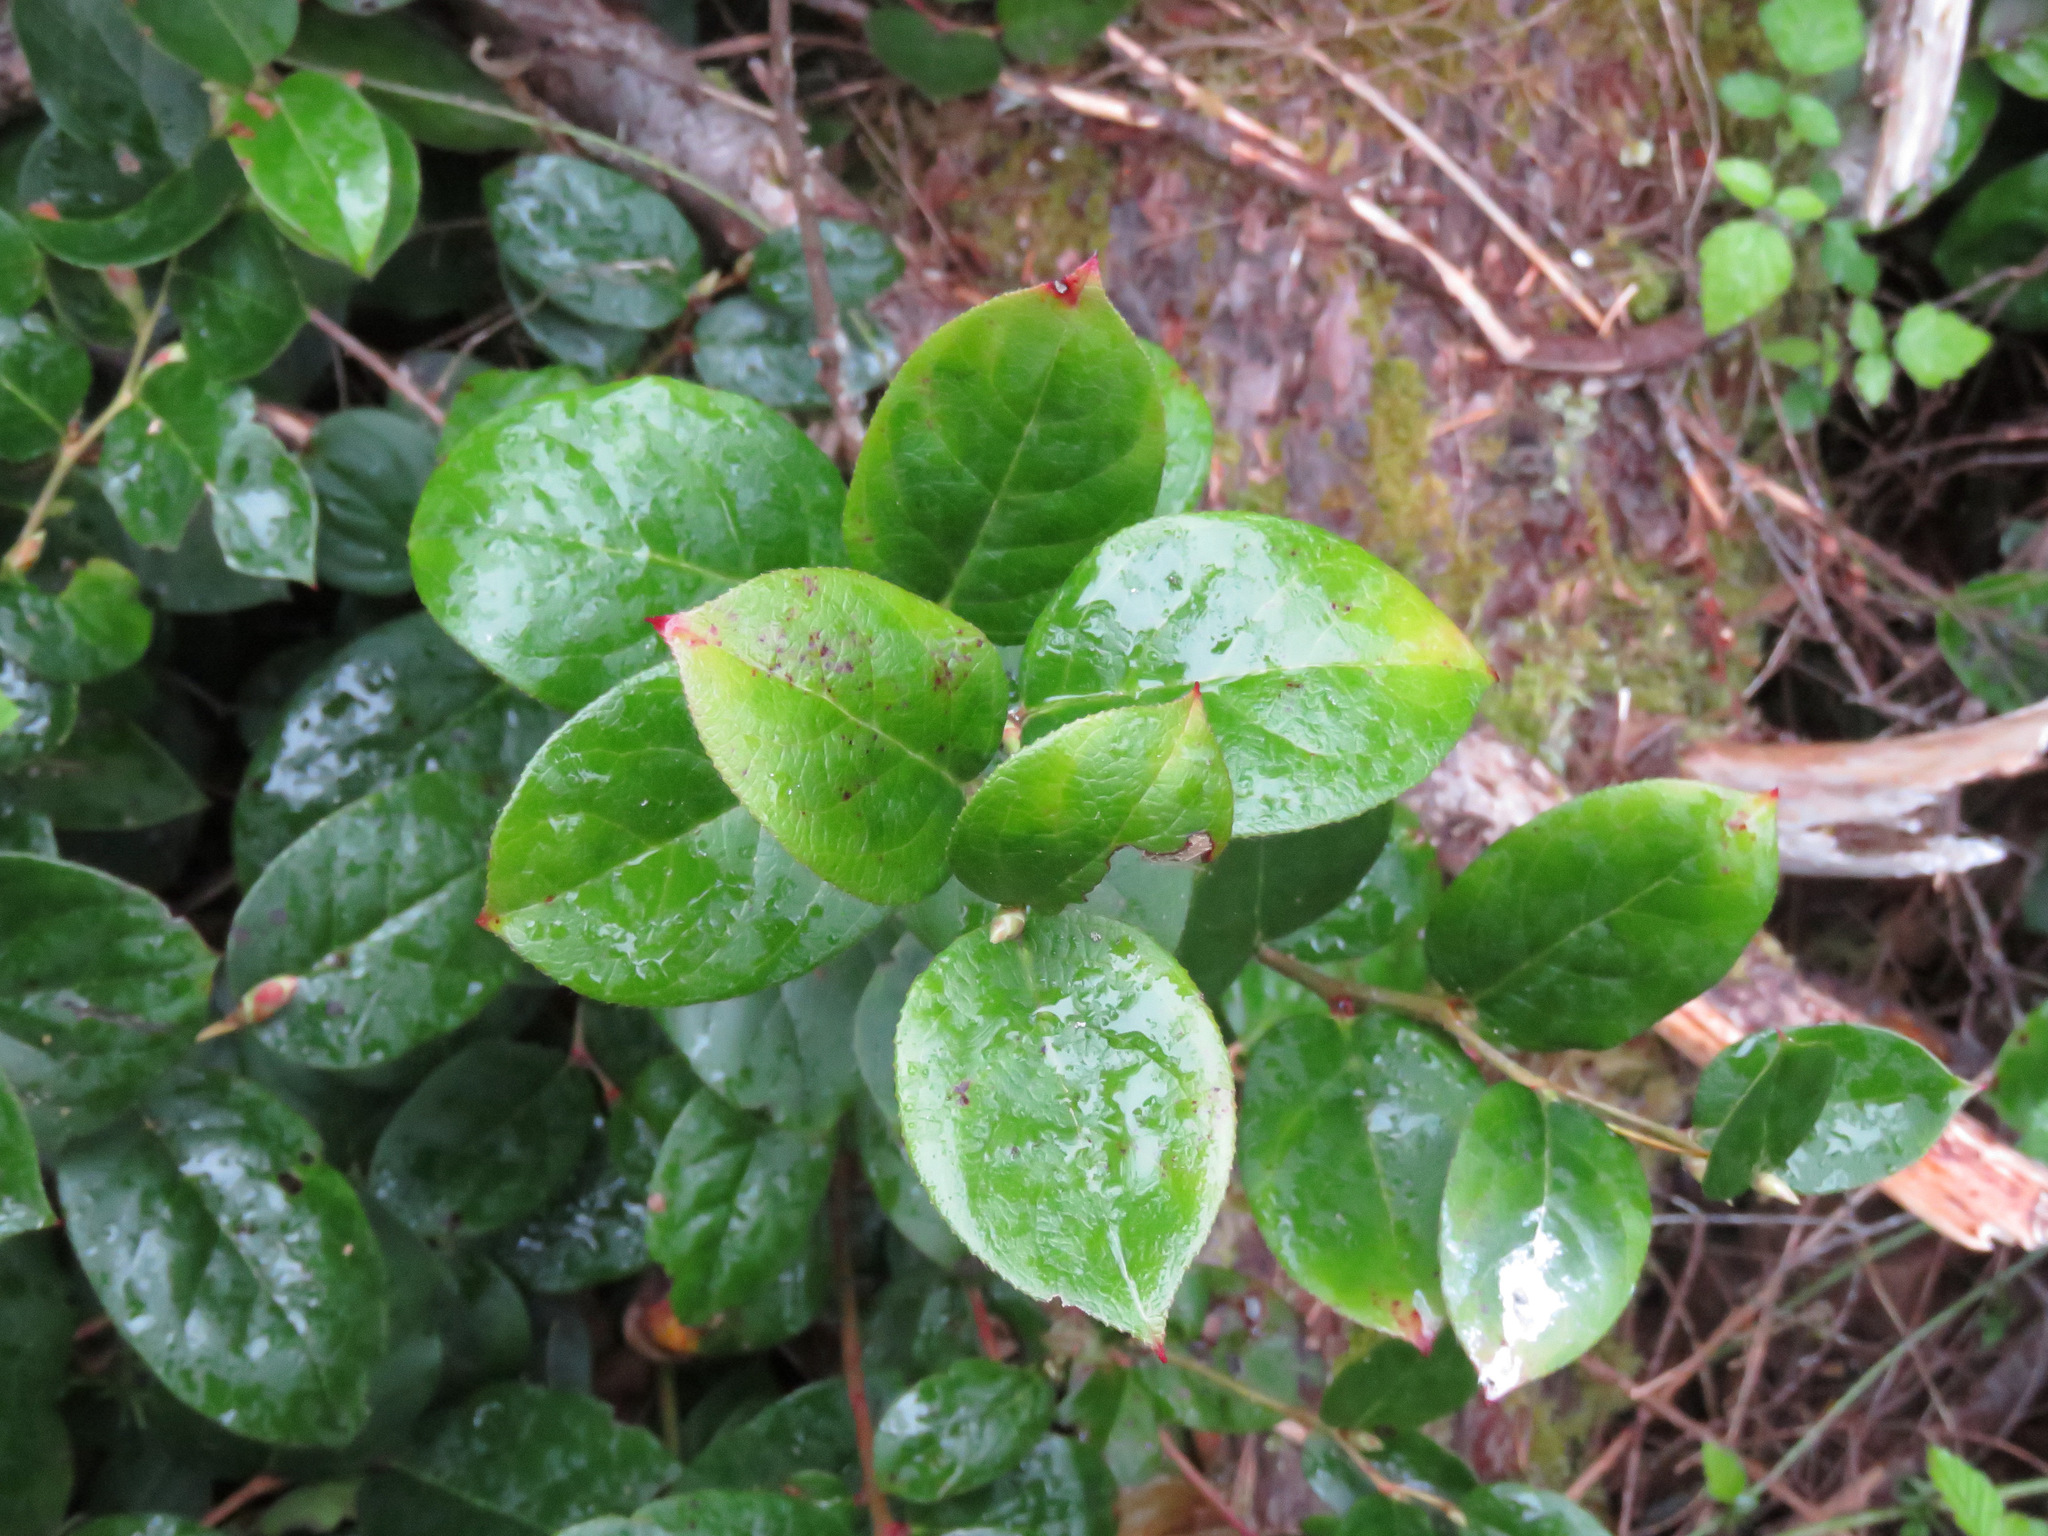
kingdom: Plantae
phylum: Tracheophyta
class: Magnoliopsida
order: Ericales
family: Ericaceae
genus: Gaultheria
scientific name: Gaultheria shallon
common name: Shallon
